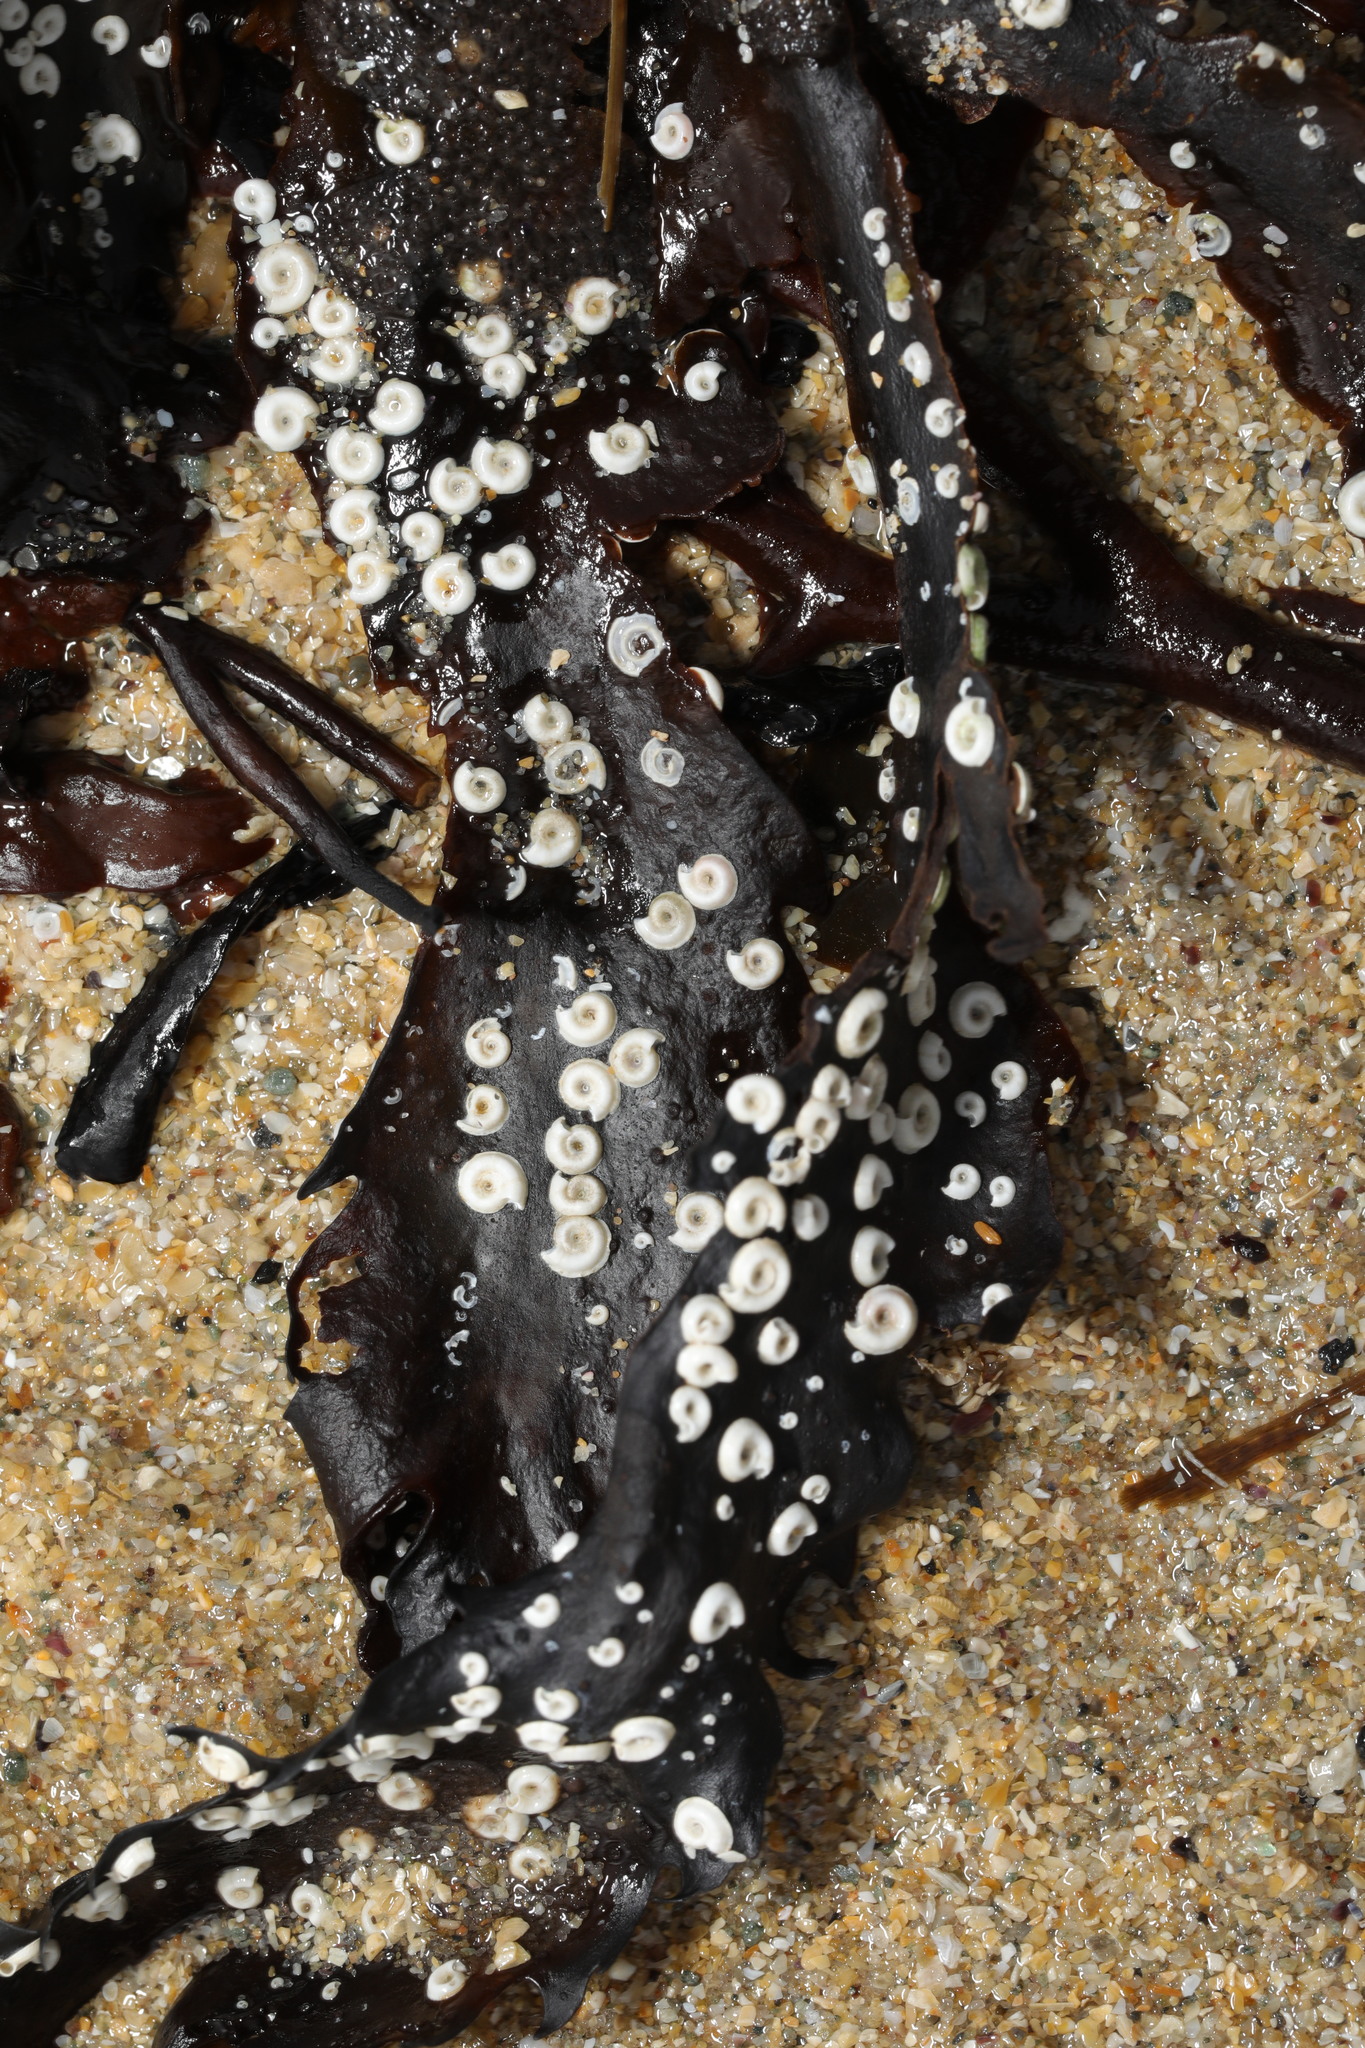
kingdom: Animalia
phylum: Annelida
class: Polychaeta
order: Sabellida
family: Serpulidae
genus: Spirorbis
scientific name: Spirorbis spirorbis
